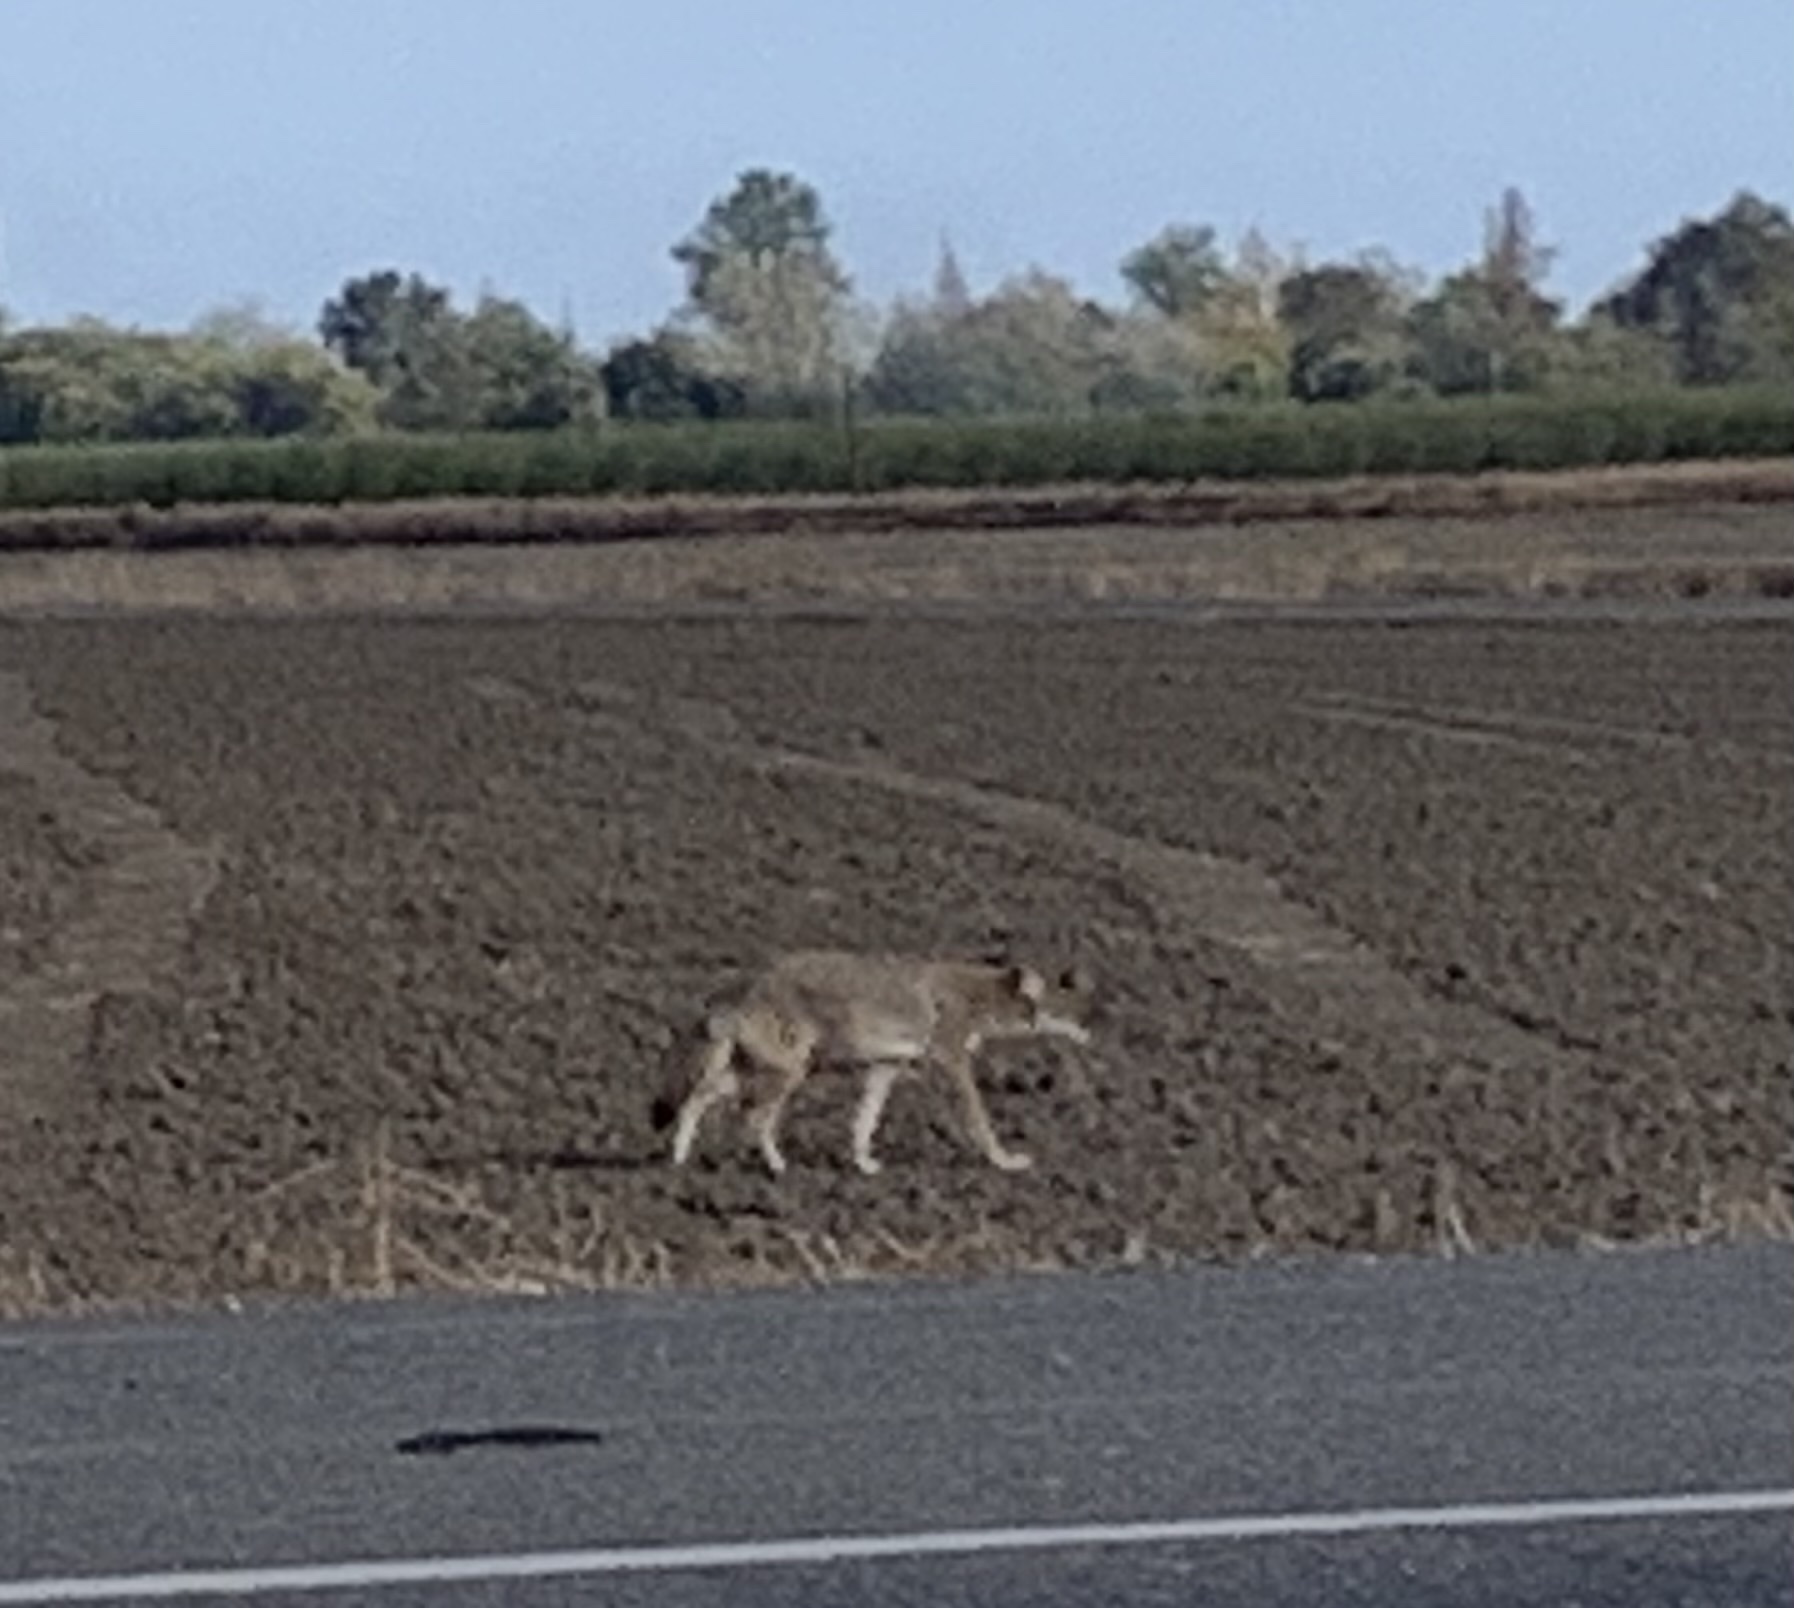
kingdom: Animalia
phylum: Chordata
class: Mammalia
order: Carnivora
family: Canidae
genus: Canis
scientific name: Canis latrans
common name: Coyote
